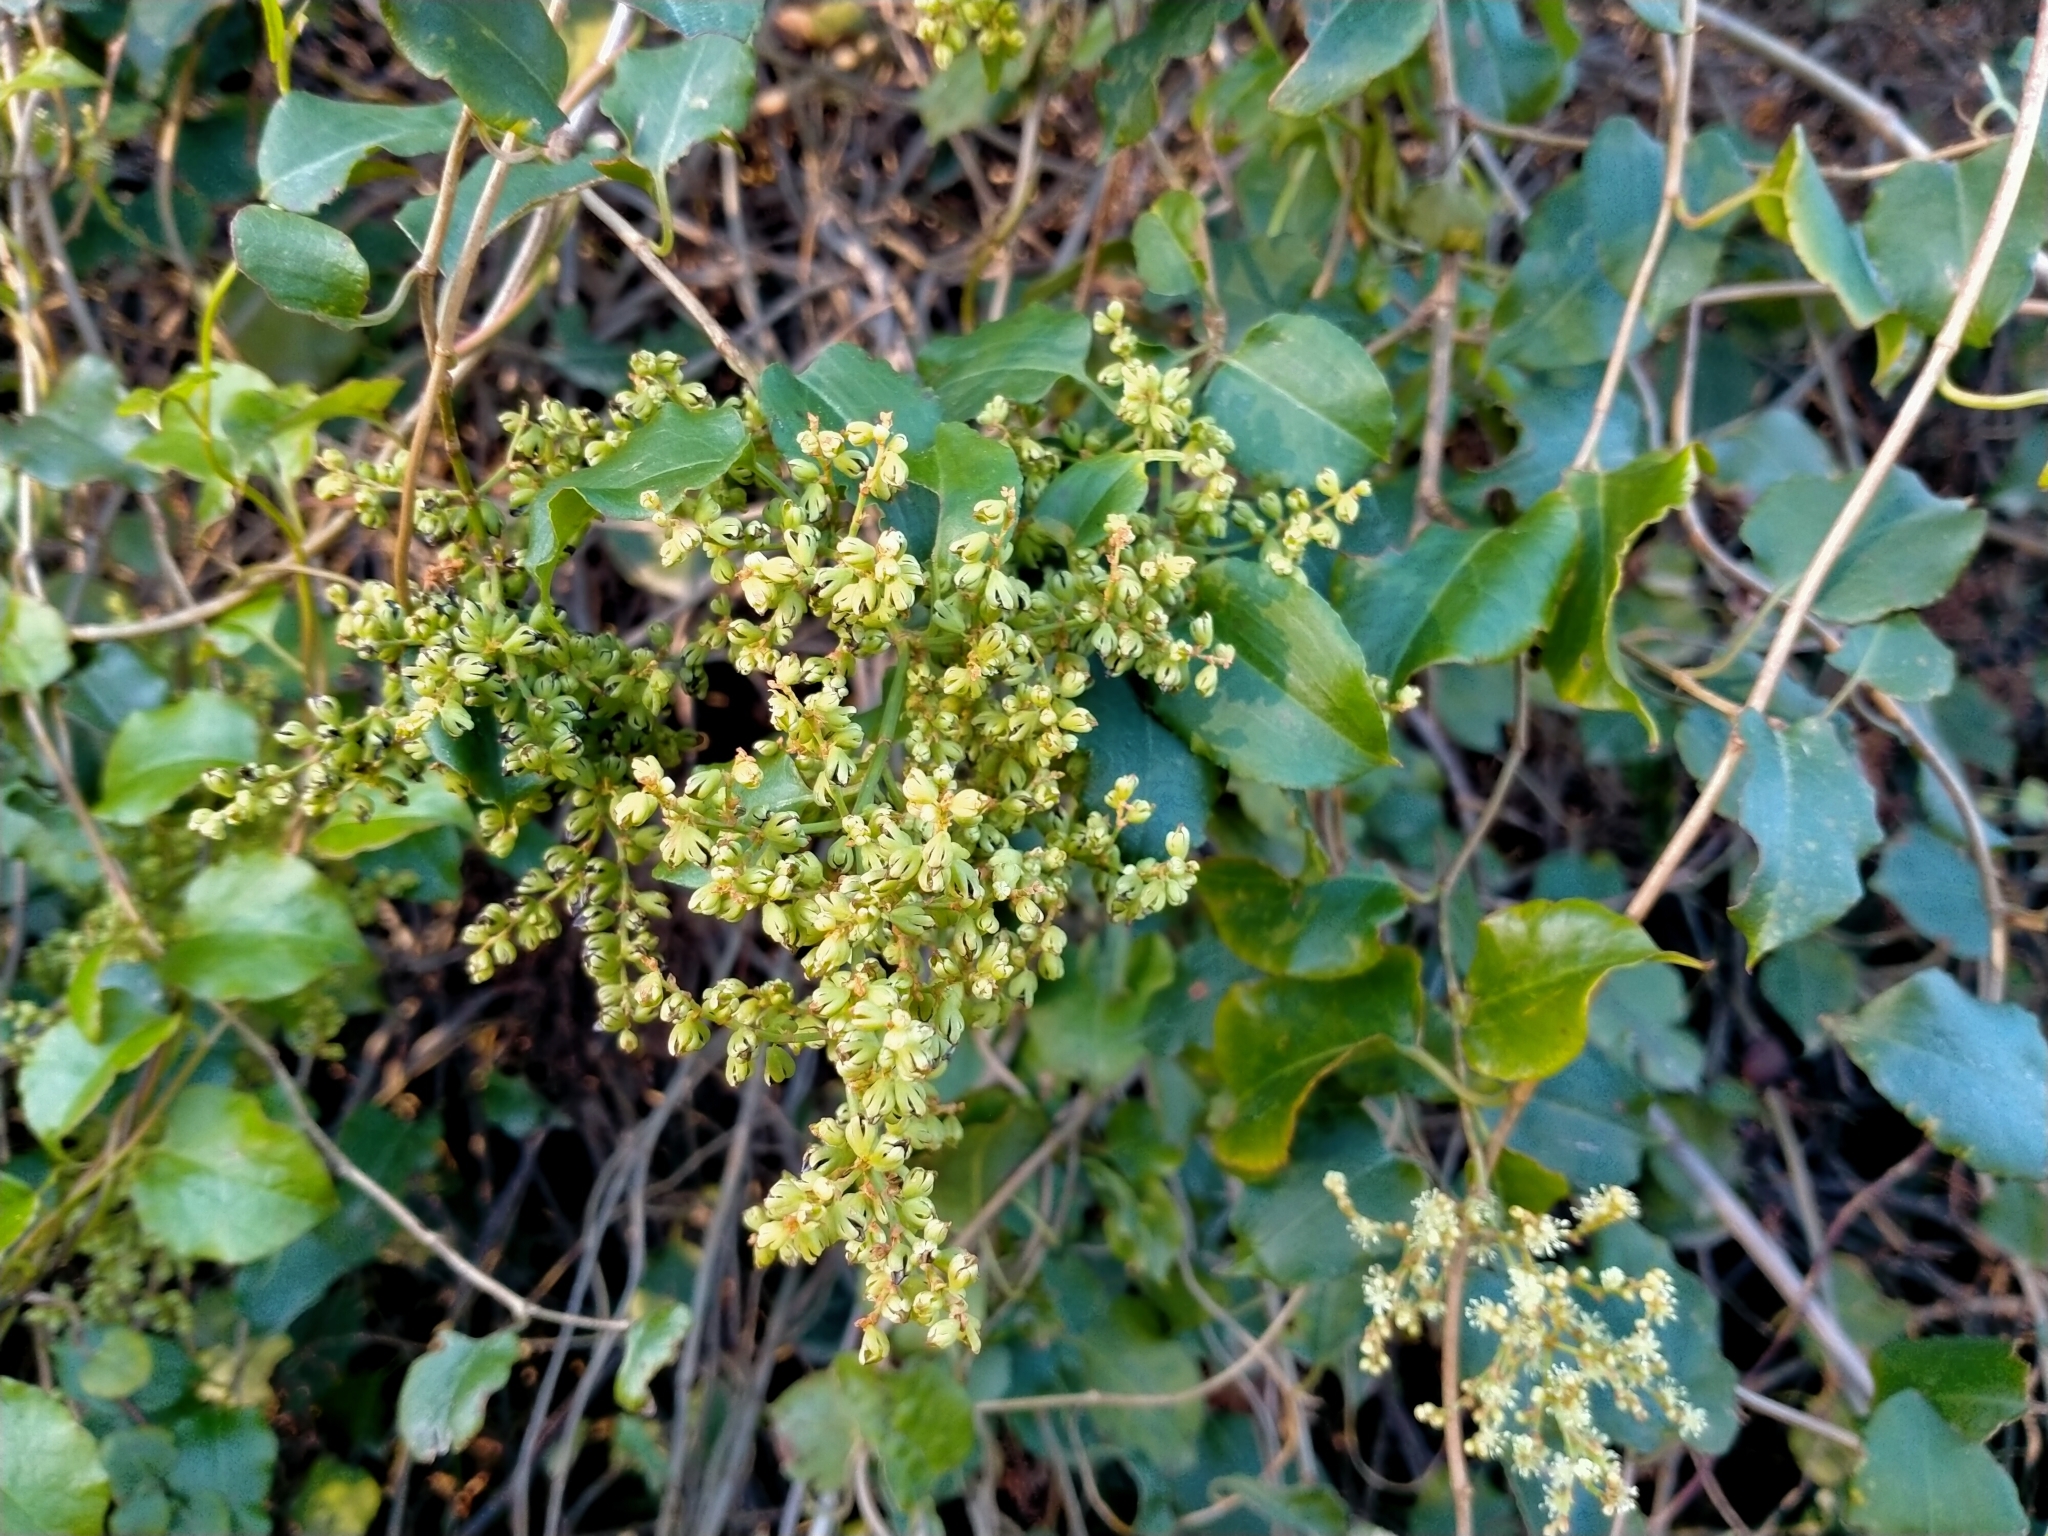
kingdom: Plantae
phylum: Tracheophyta
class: Magnoliopsida
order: Caryophyllales
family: Polygonaceae
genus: Muehlenbeckia
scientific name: Muehlenbeckia australis
